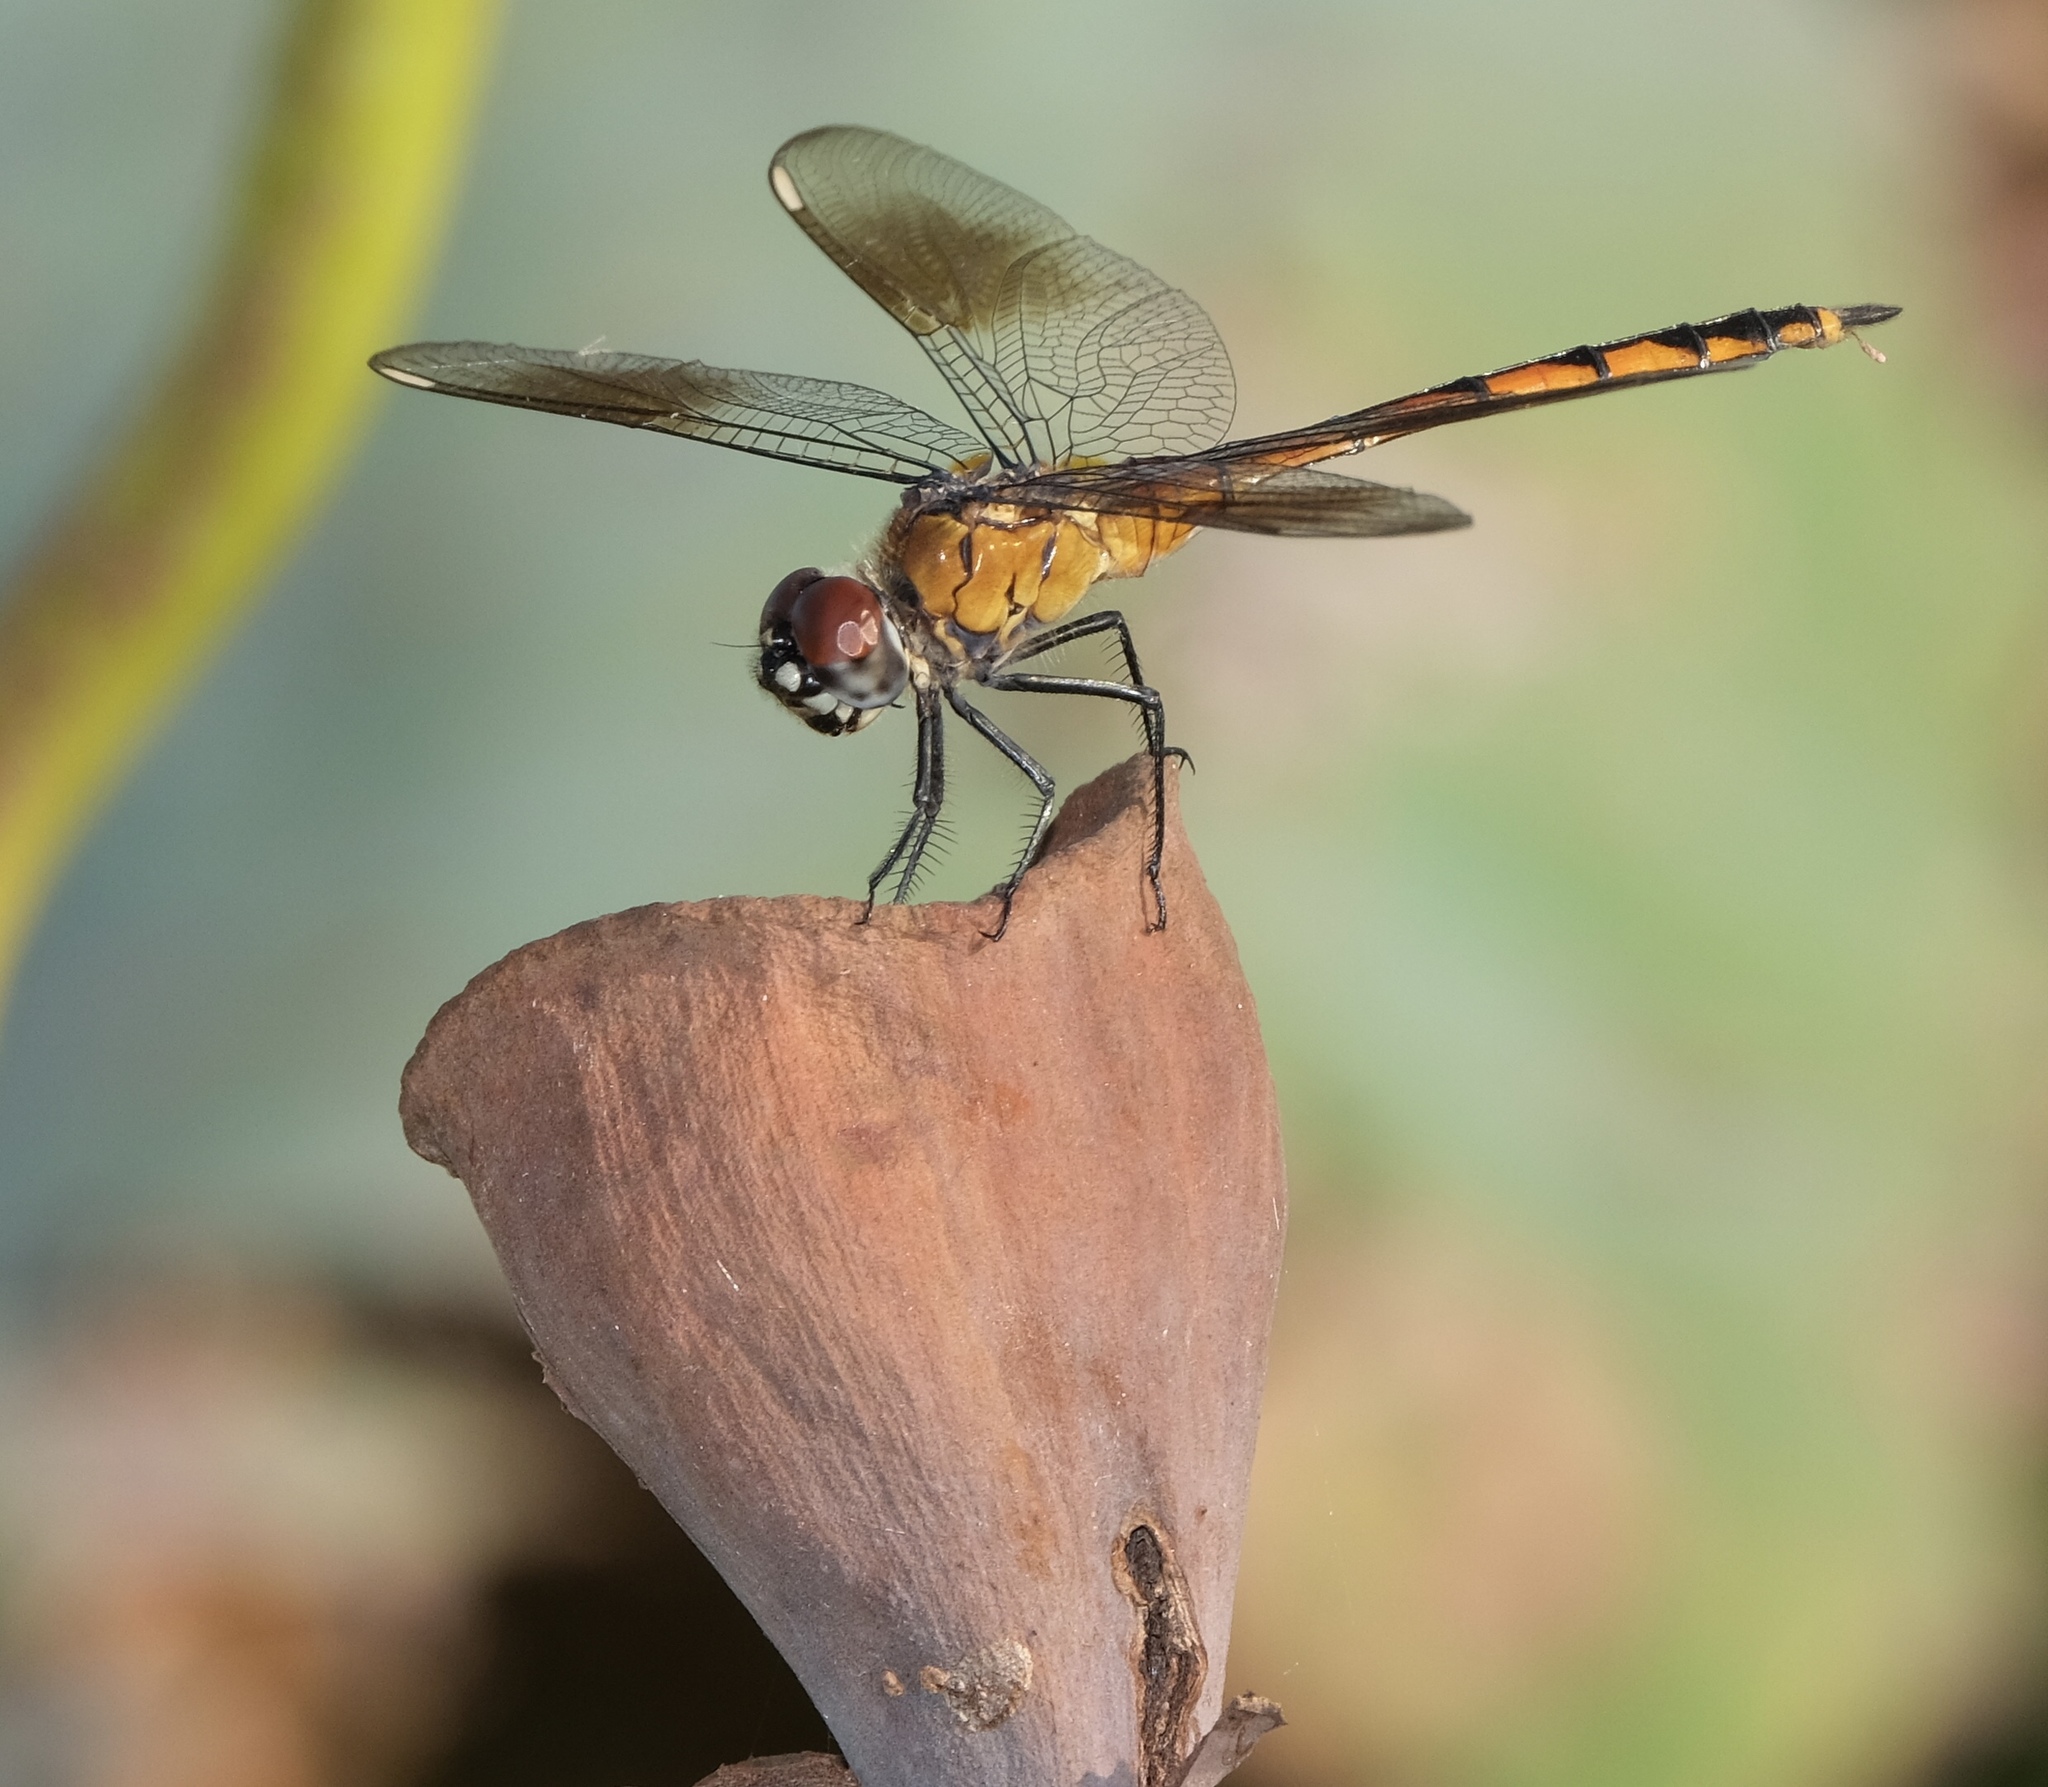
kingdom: Animalia
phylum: Arthropoda
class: Insecta
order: Odonata
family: Libellulidae
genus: Brachymesia
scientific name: Brachymesia gravida
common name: Four-spotted pennant
